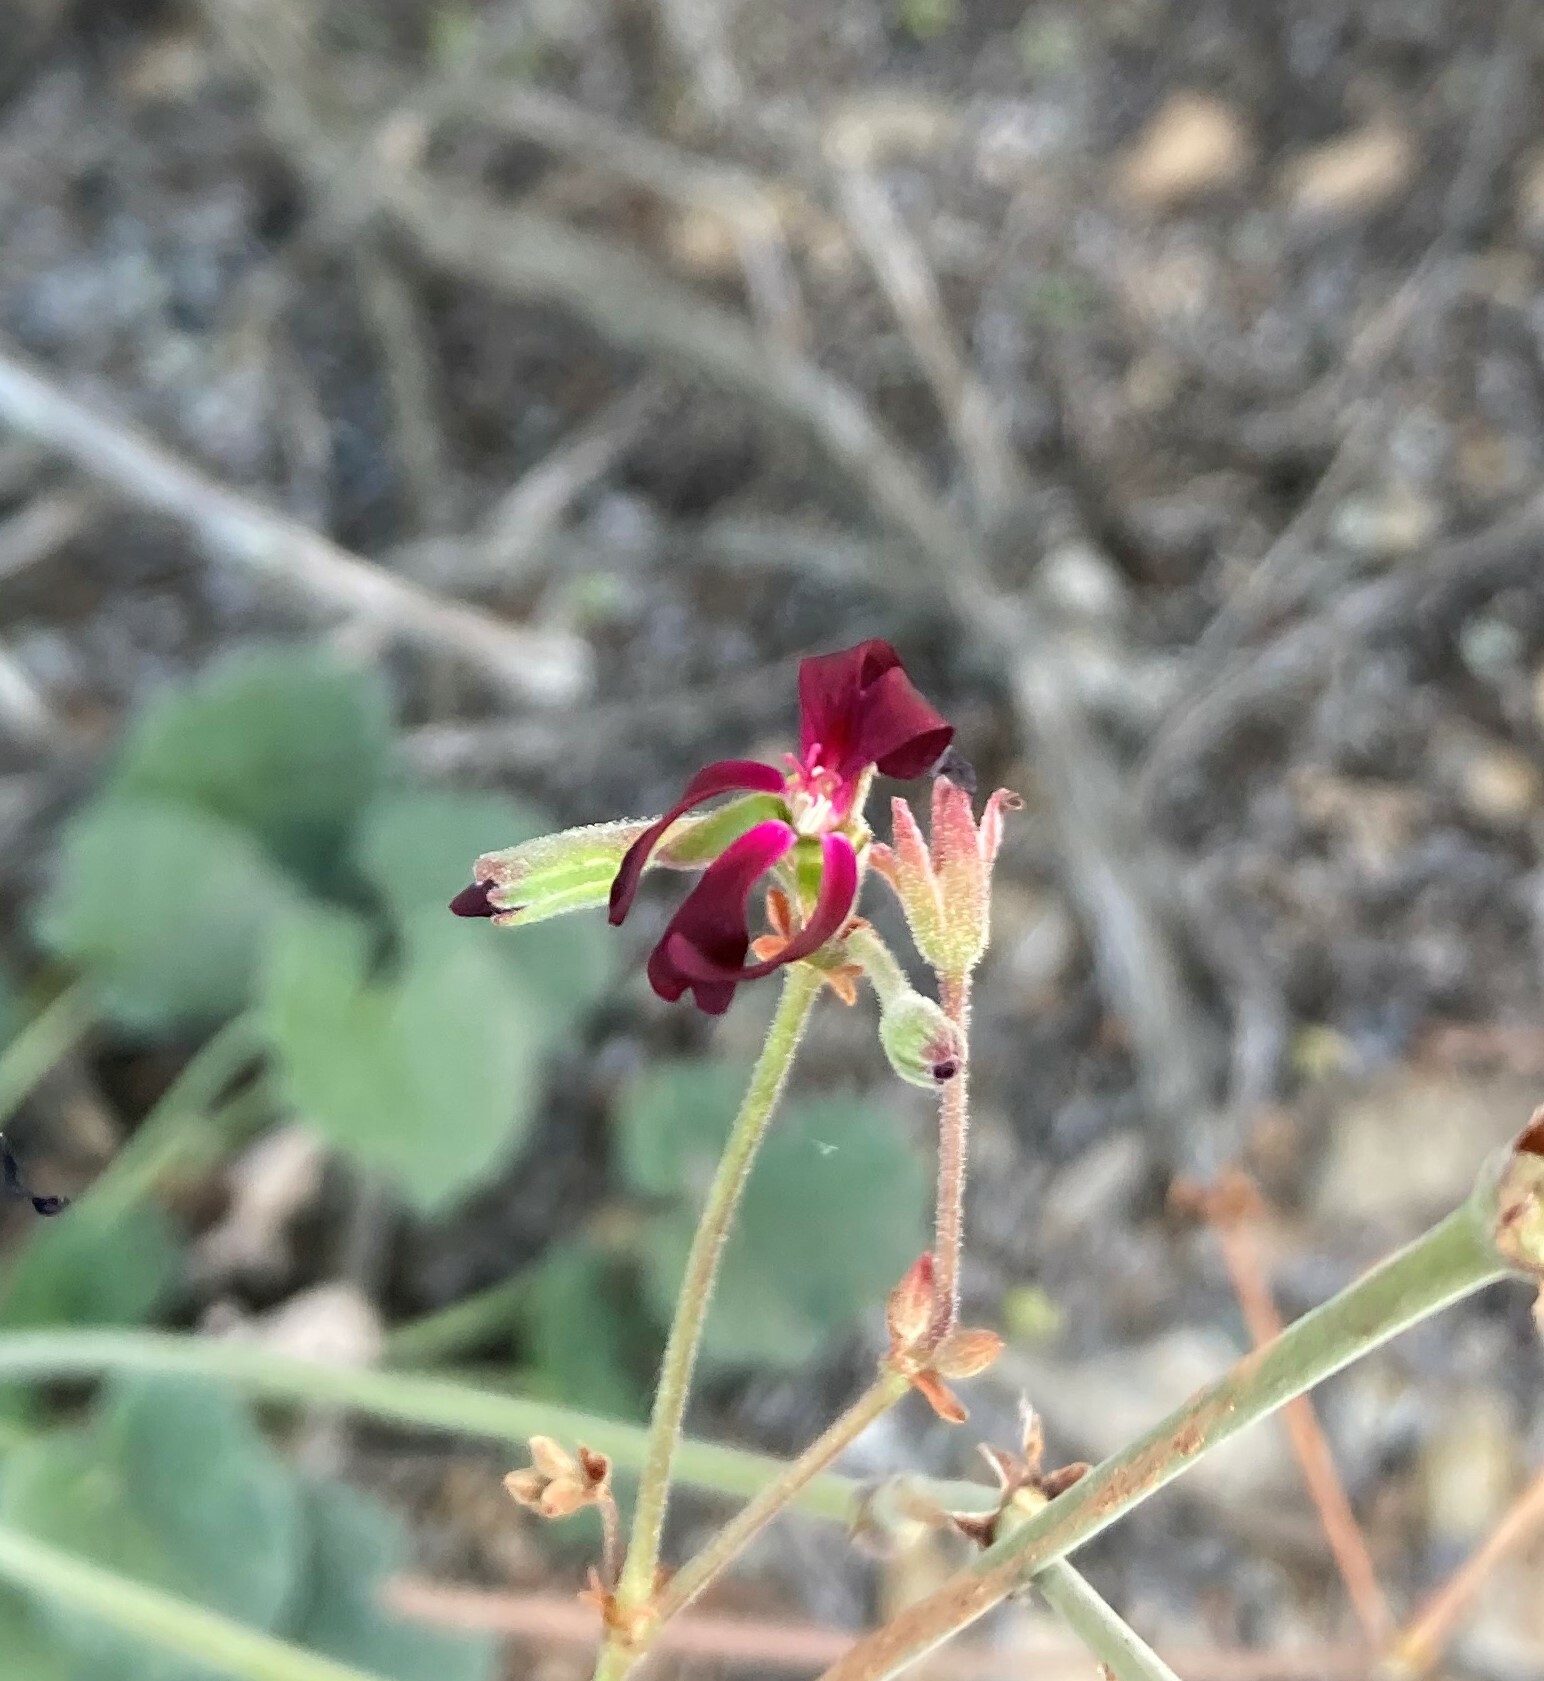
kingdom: Plantae
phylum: Tracheophyta
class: Magnoliopsida
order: Geraniales
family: Geraniaceae
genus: Pelargonium
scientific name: Pelargonium sidoides
